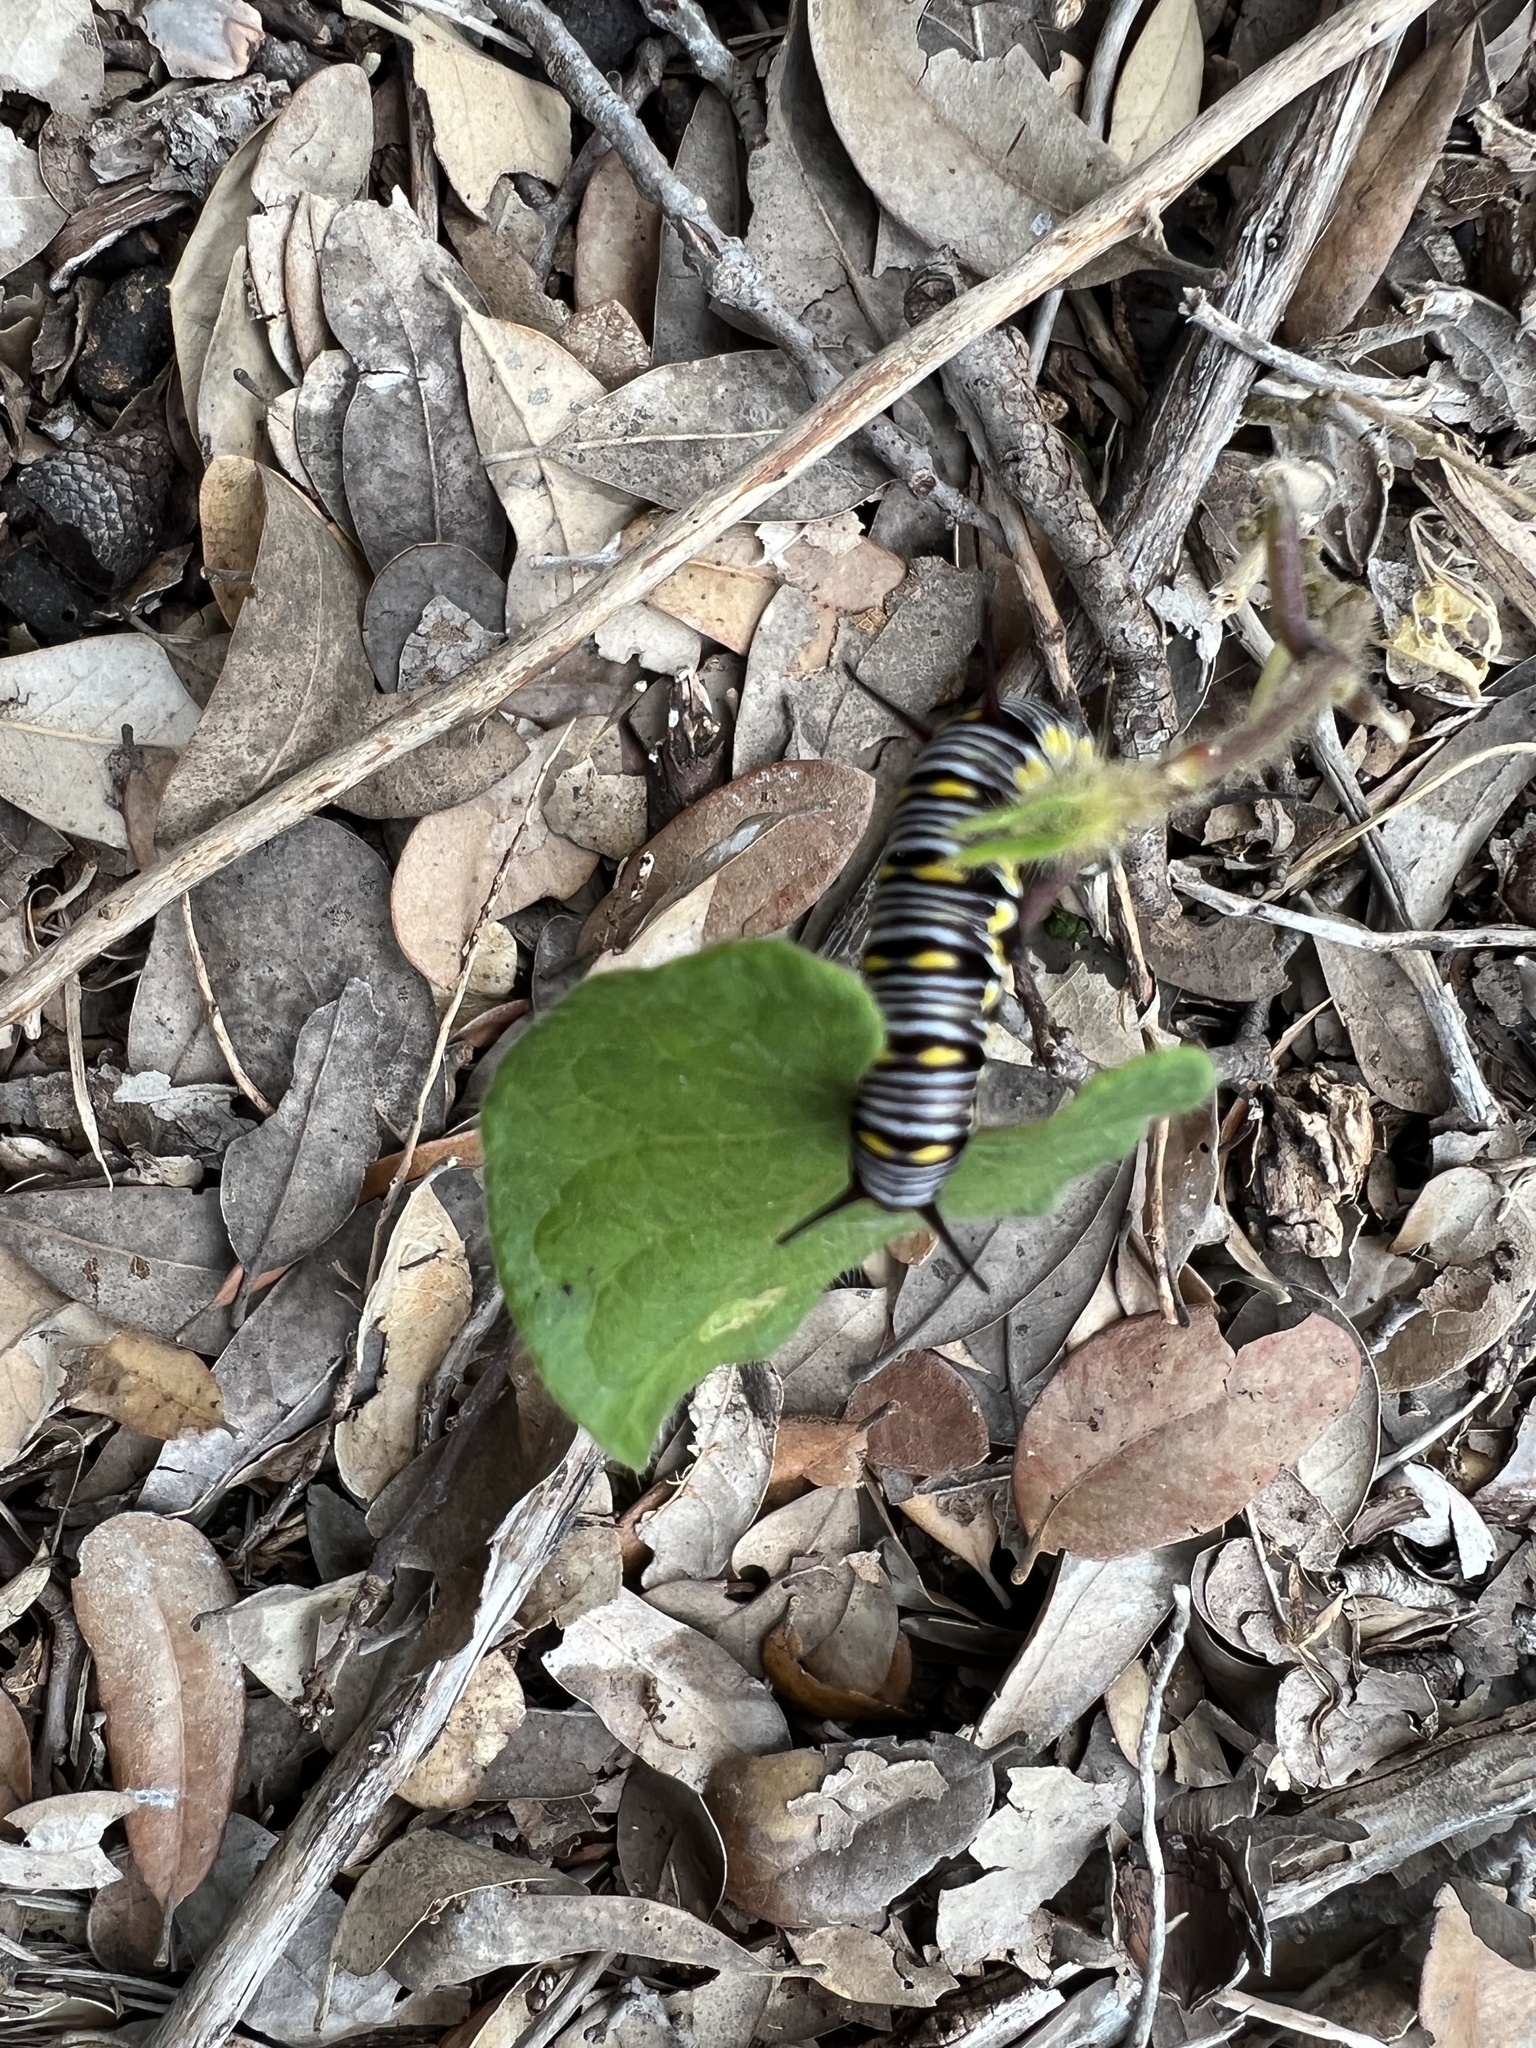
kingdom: Animalia
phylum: Arthropoda
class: Insecta
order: Lepidoptera
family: Nymphalidae
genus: Danaus
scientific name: Danaus gilippus
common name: Queen
